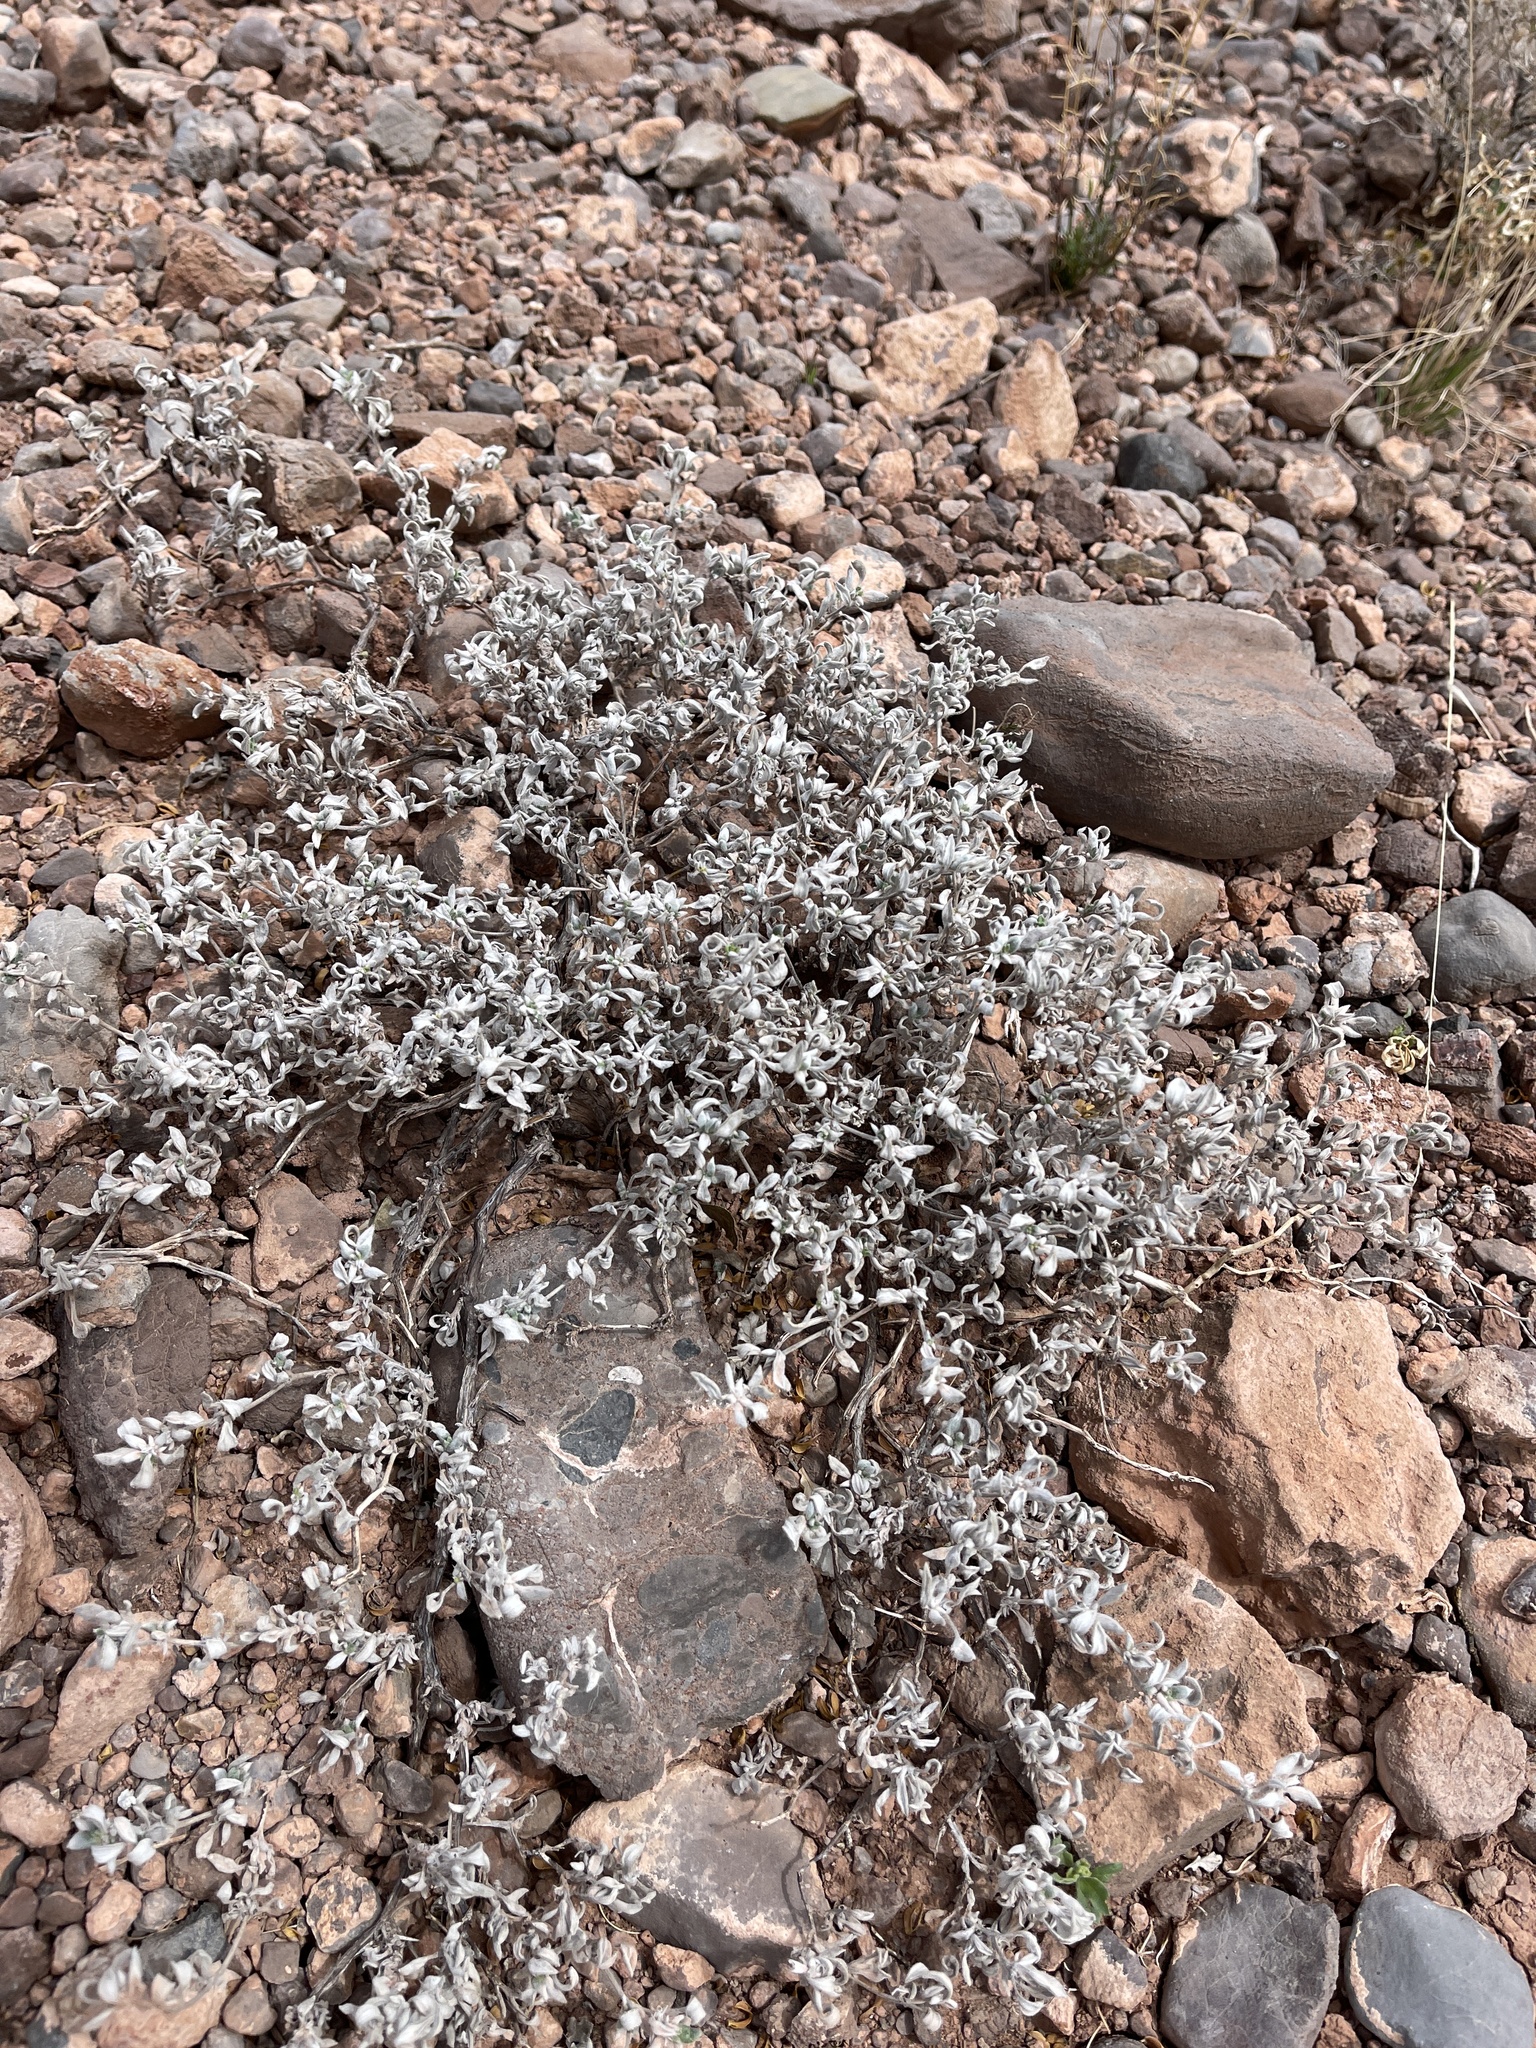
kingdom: Plantae
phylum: Tracheophyta
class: Magnoliopsida
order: Boraginales
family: Ehretiaceae
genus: Tiquilia
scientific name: Tiquilia canescens
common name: Hairy tiquilia
